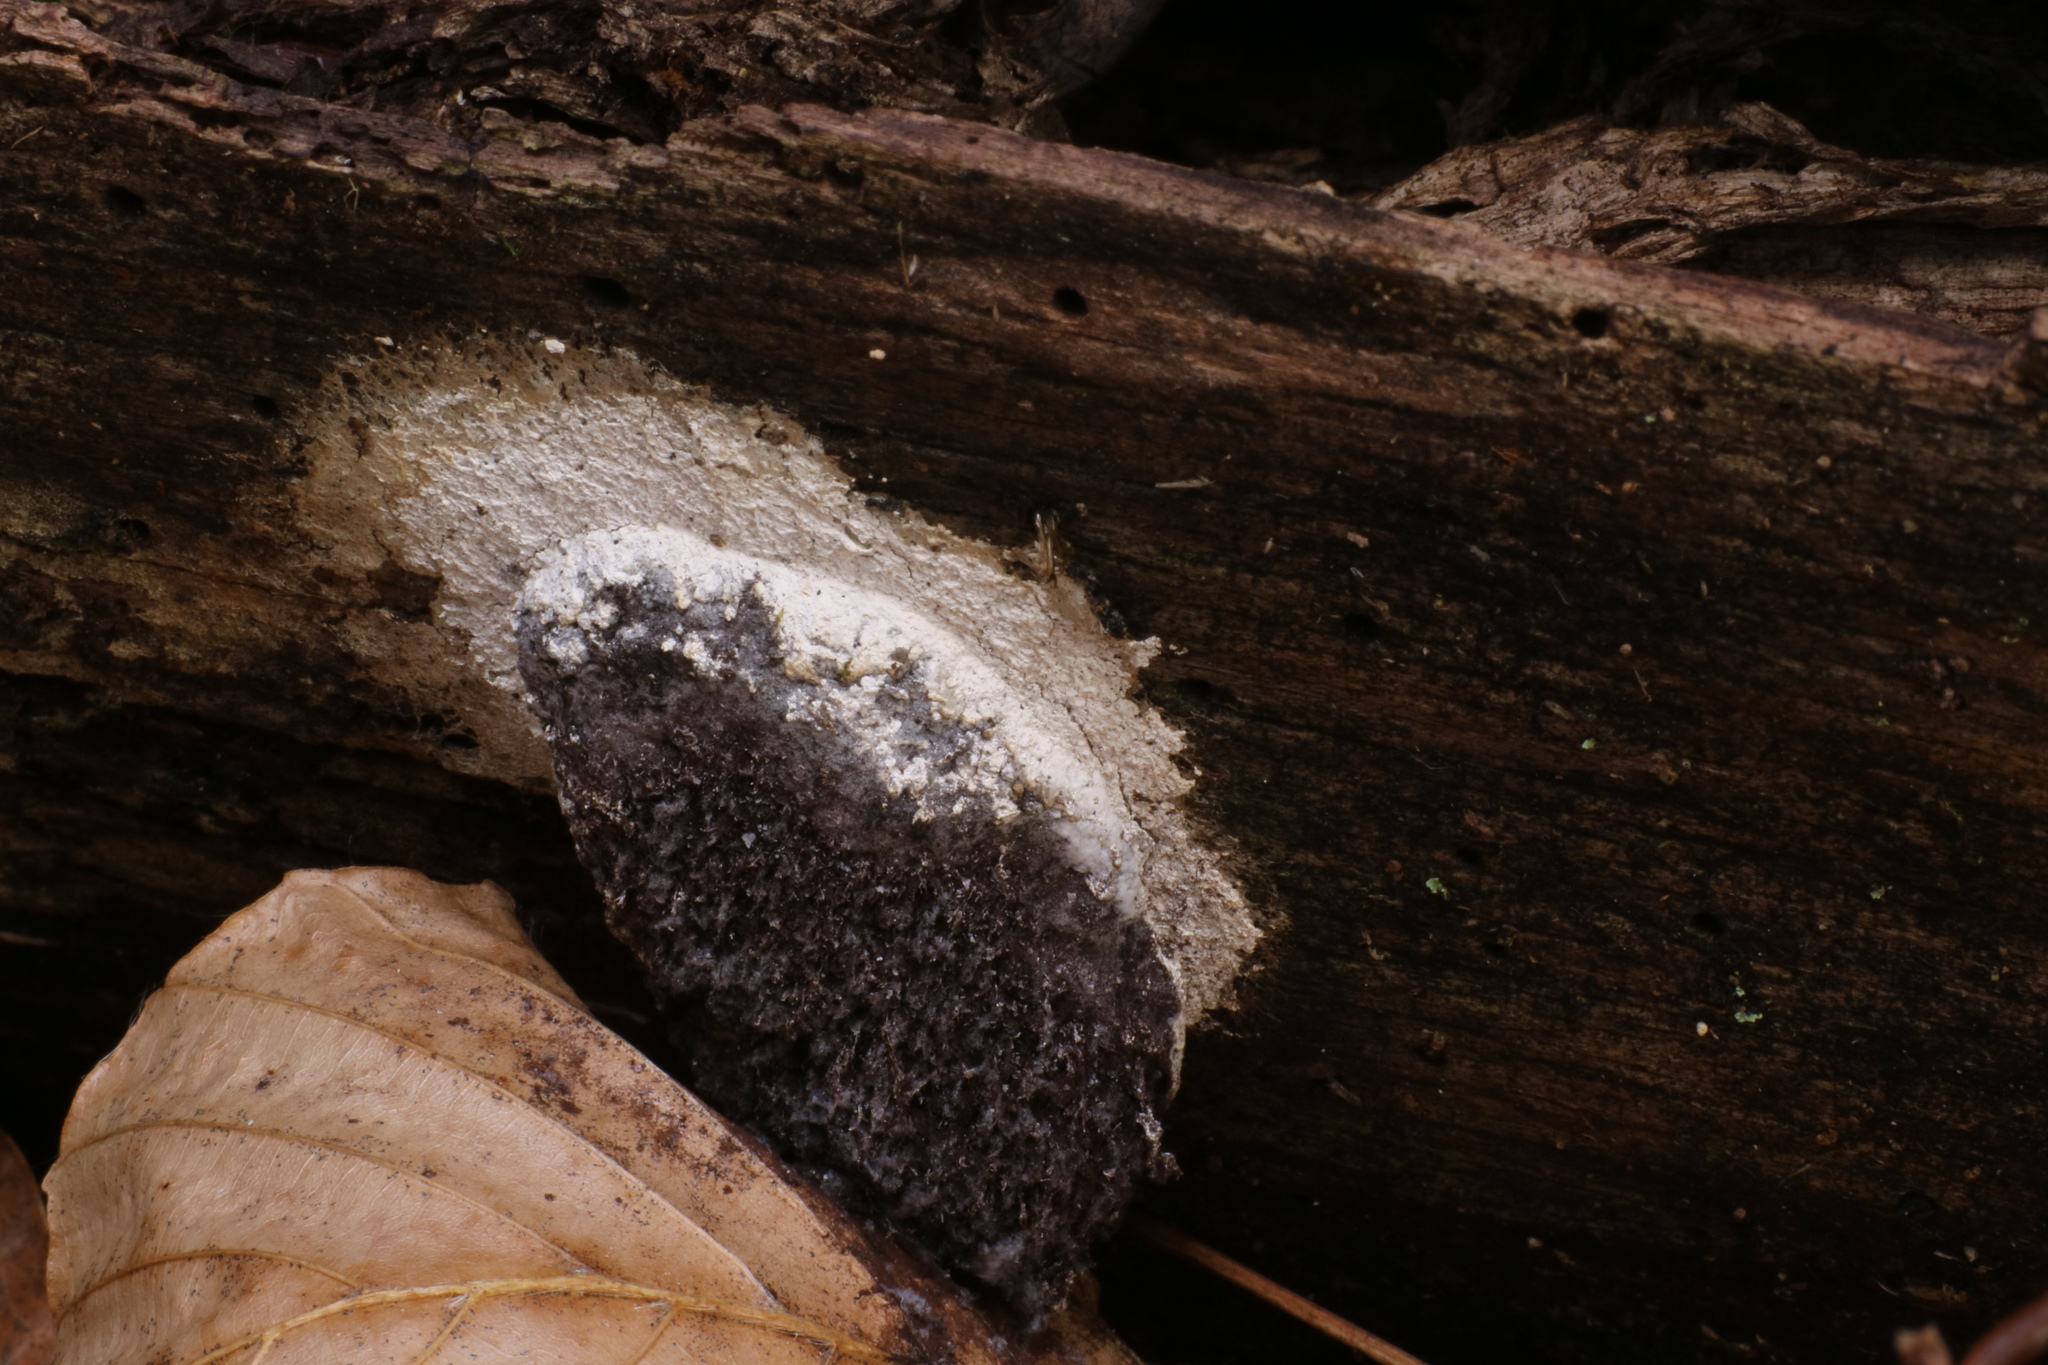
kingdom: Protozoa
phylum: Mycetozoa
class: Myxomycetes
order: Physarales
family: Physaraceae
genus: Fuligo
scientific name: Fuligo cinerea
